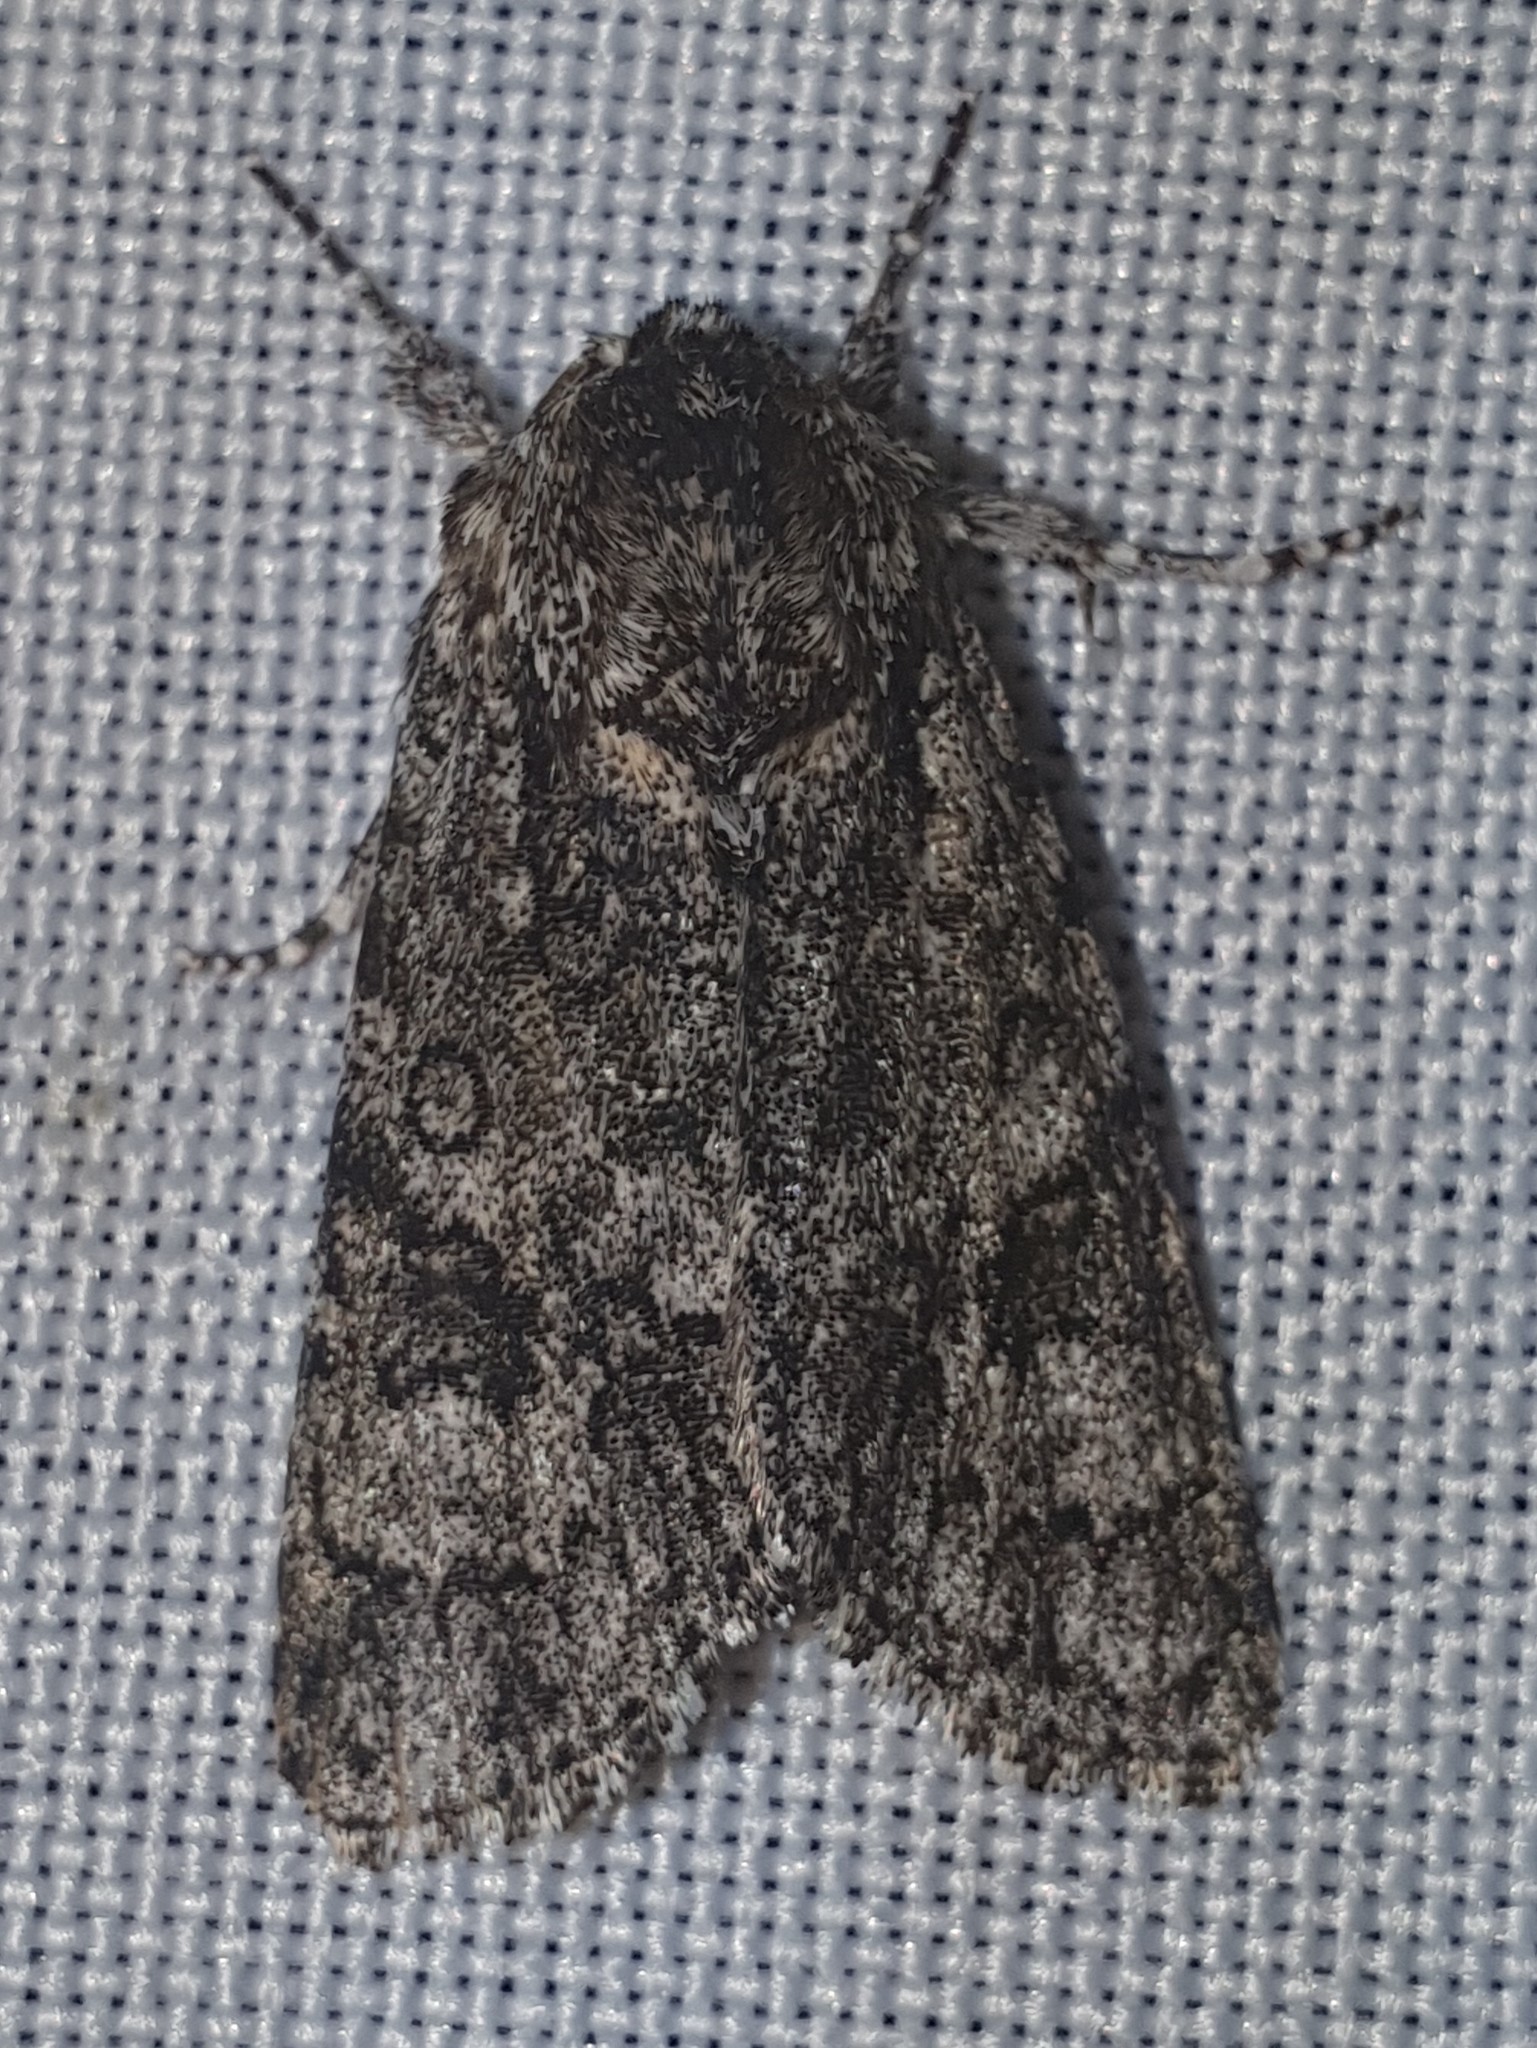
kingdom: Animalia
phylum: Arthropoda
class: Insecta
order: Lepidoptera
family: Noctuidae
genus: Acronicta
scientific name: Acronicta megacephala
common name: Poplar grey
